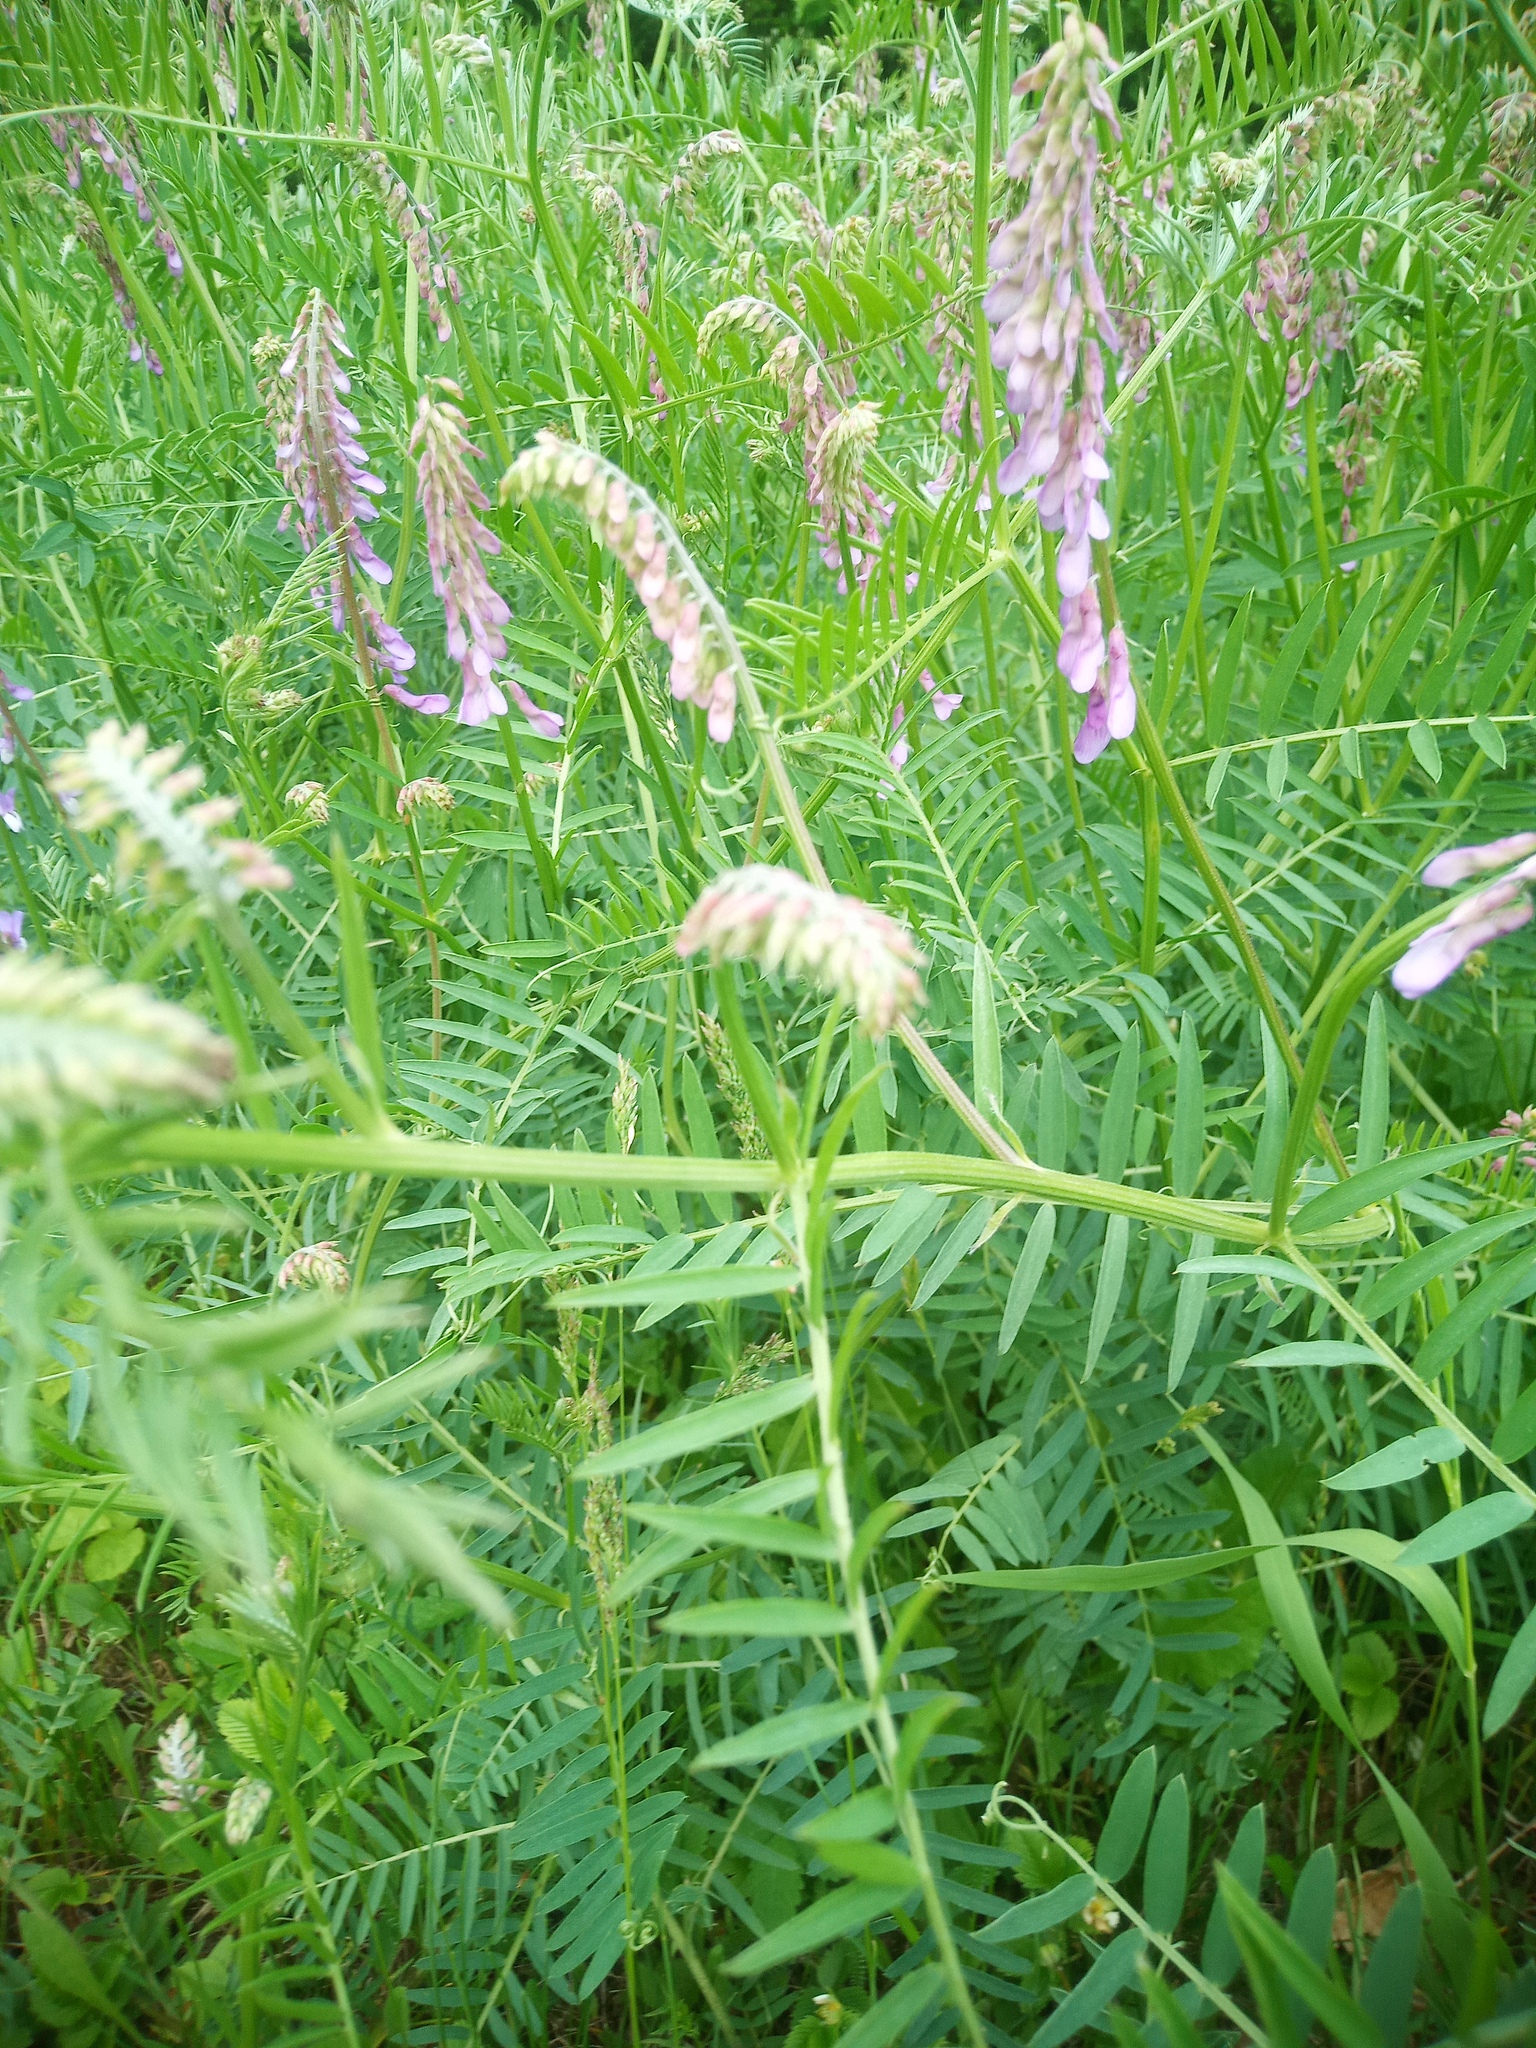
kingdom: Plantae
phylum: Tracheophyta
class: Magnoliopsida
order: Fabales
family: Fabaceae
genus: Vicia
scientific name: Vicia tenuifolia
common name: Fine-leaved vetch
